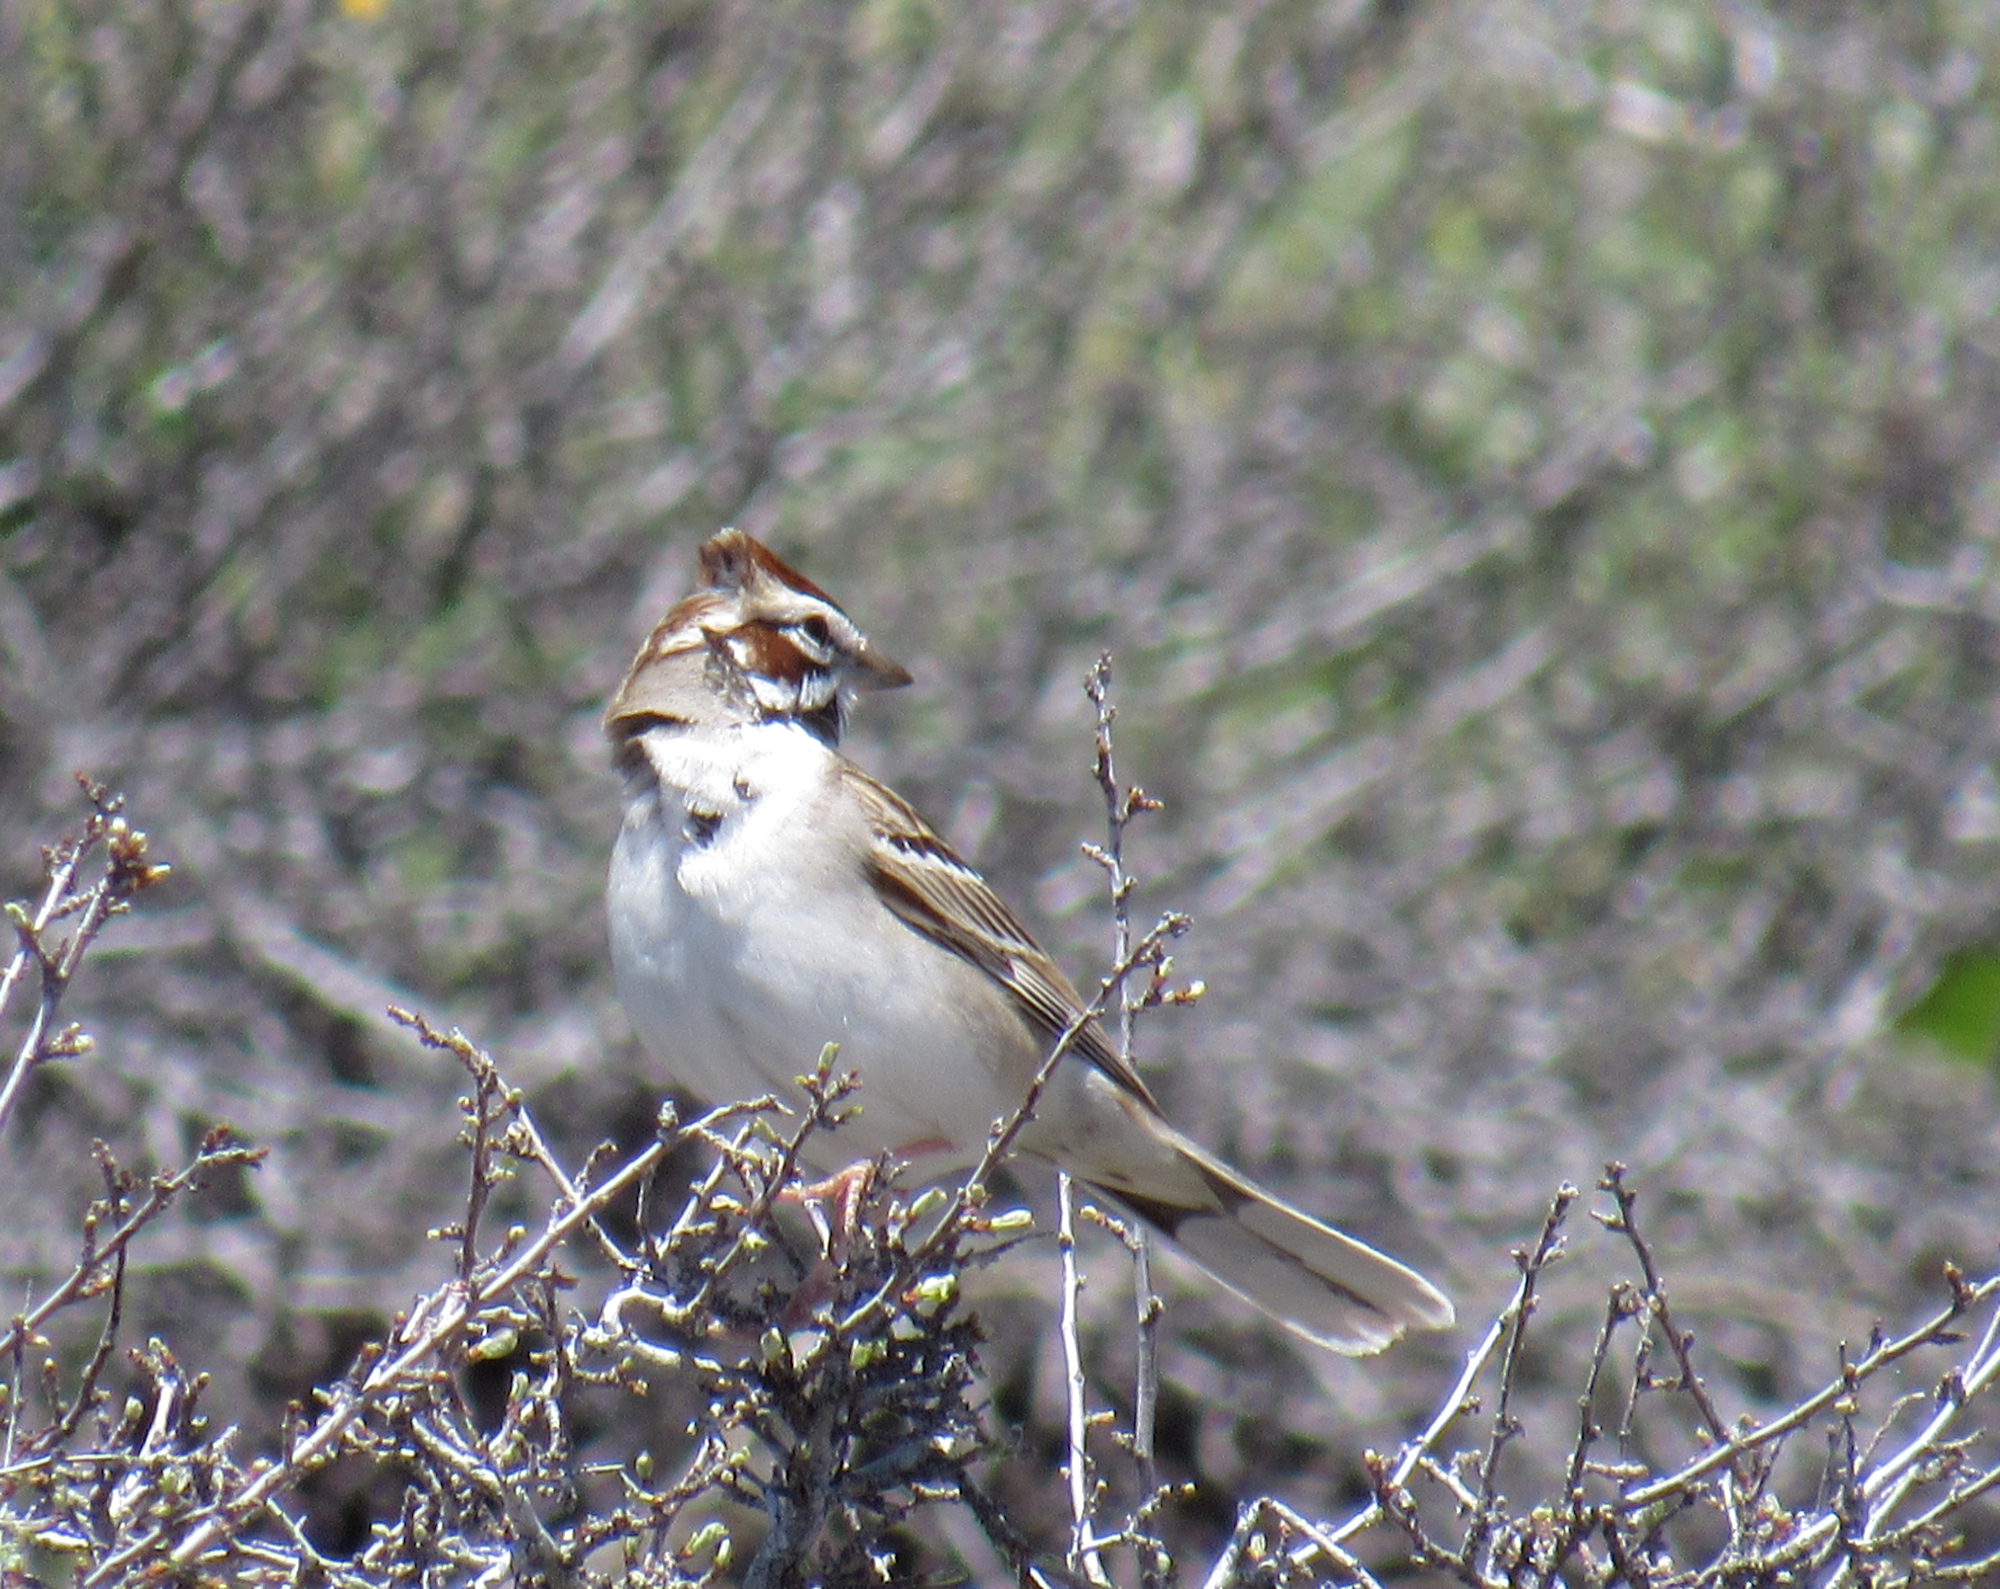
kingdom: Animalia
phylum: Chordata
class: Aves
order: Passeriformes
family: Passerellidae
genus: Chondestes
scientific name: Chondestes grammacus
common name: Lark sparrow
